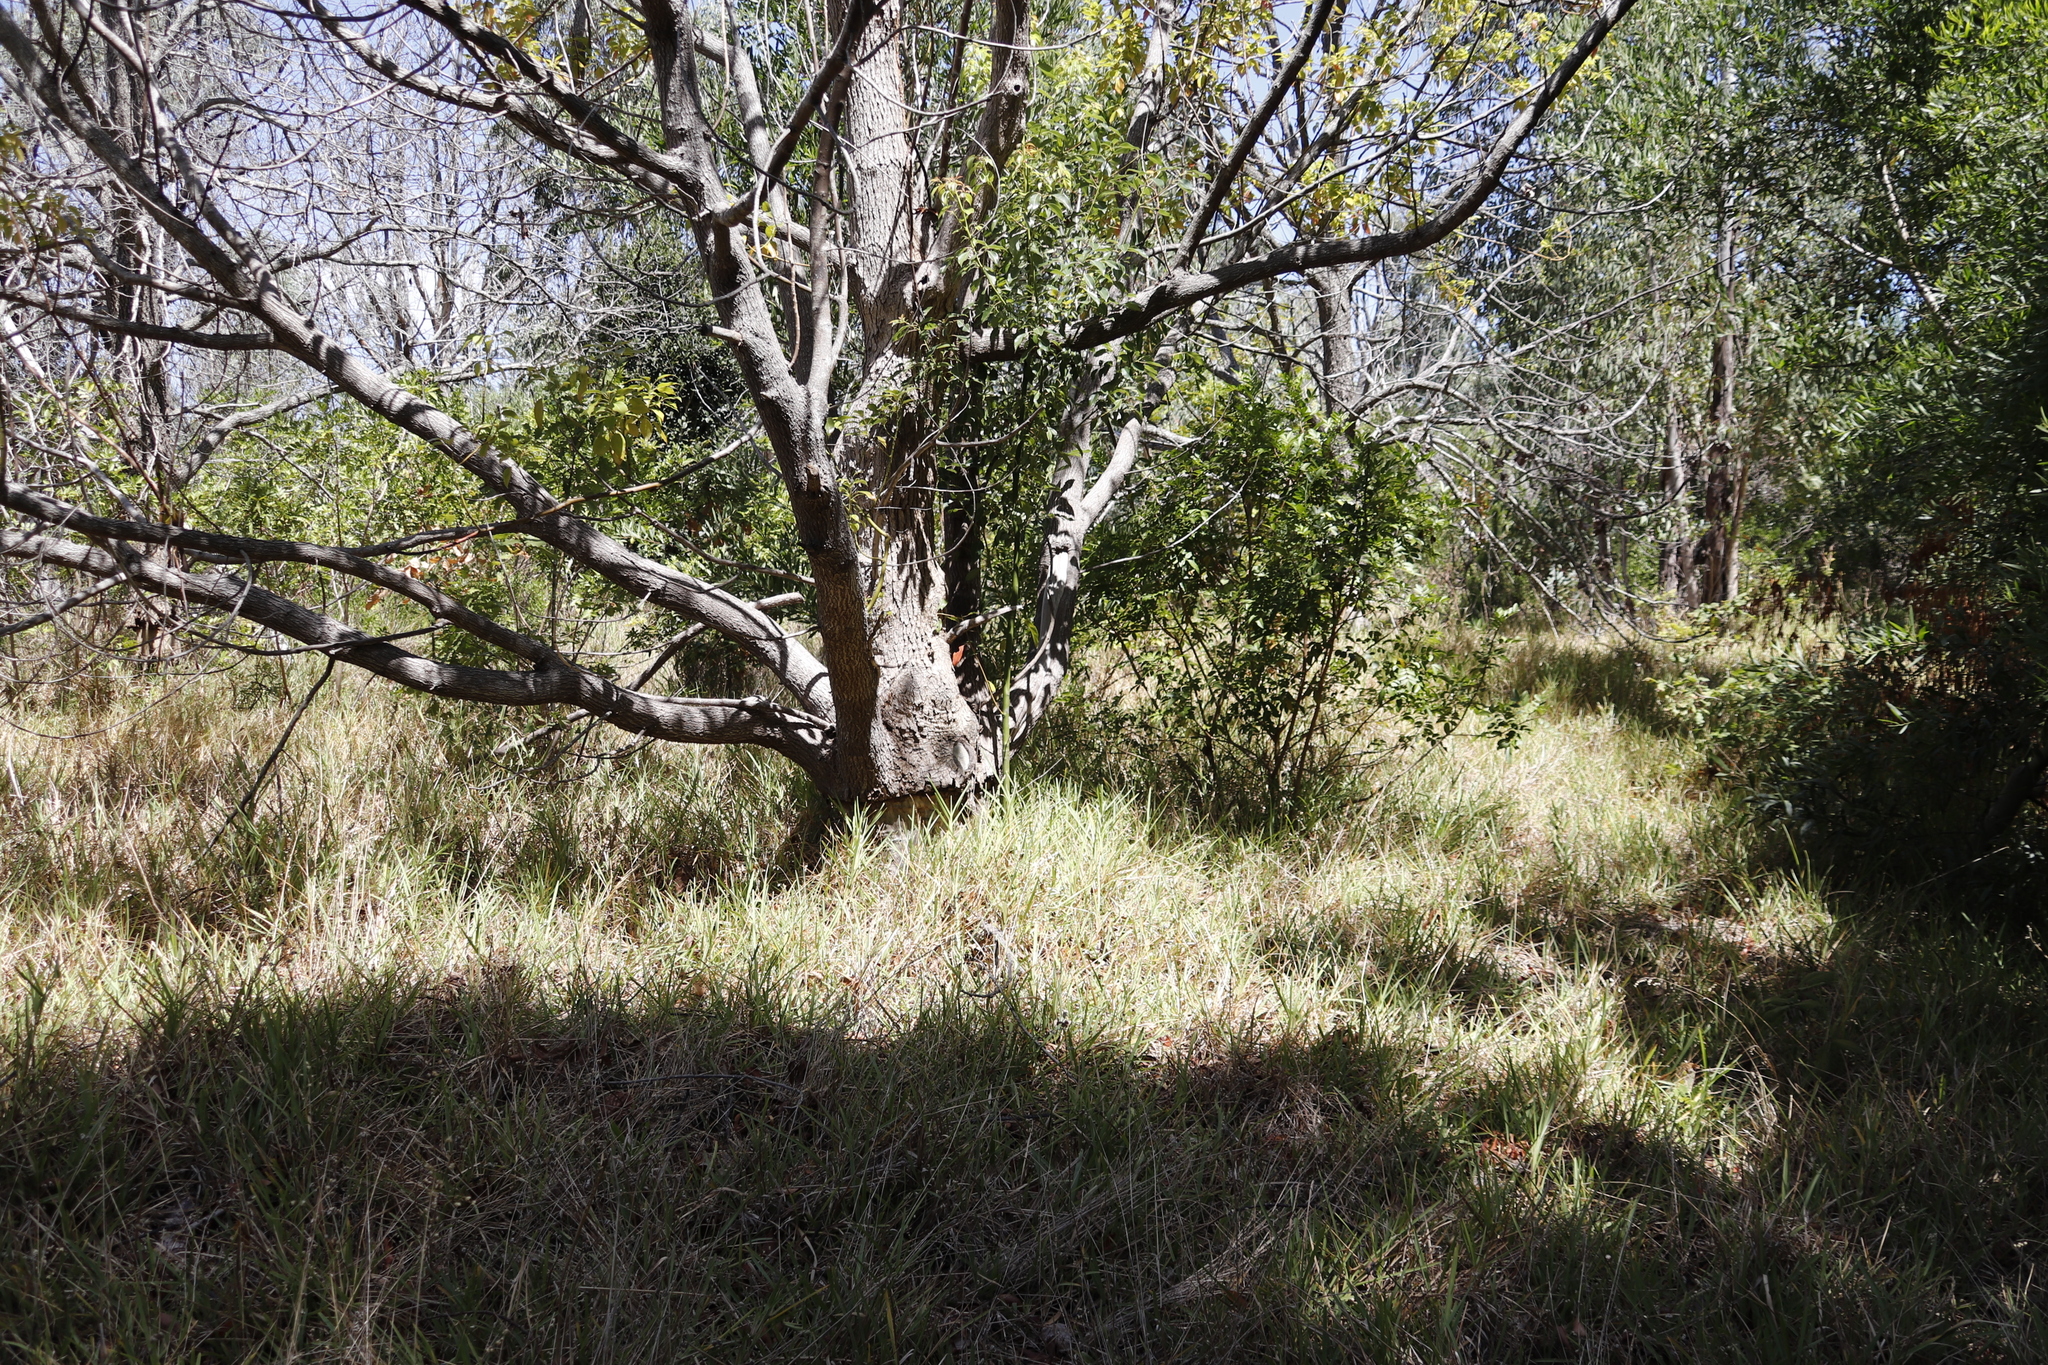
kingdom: Plantae
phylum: Tracheophyta
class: Magnoliopsida
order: Laurales
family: Lauraceae
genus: Cinnamomum
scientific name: Cinnamomum camphora
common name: Camphortree
